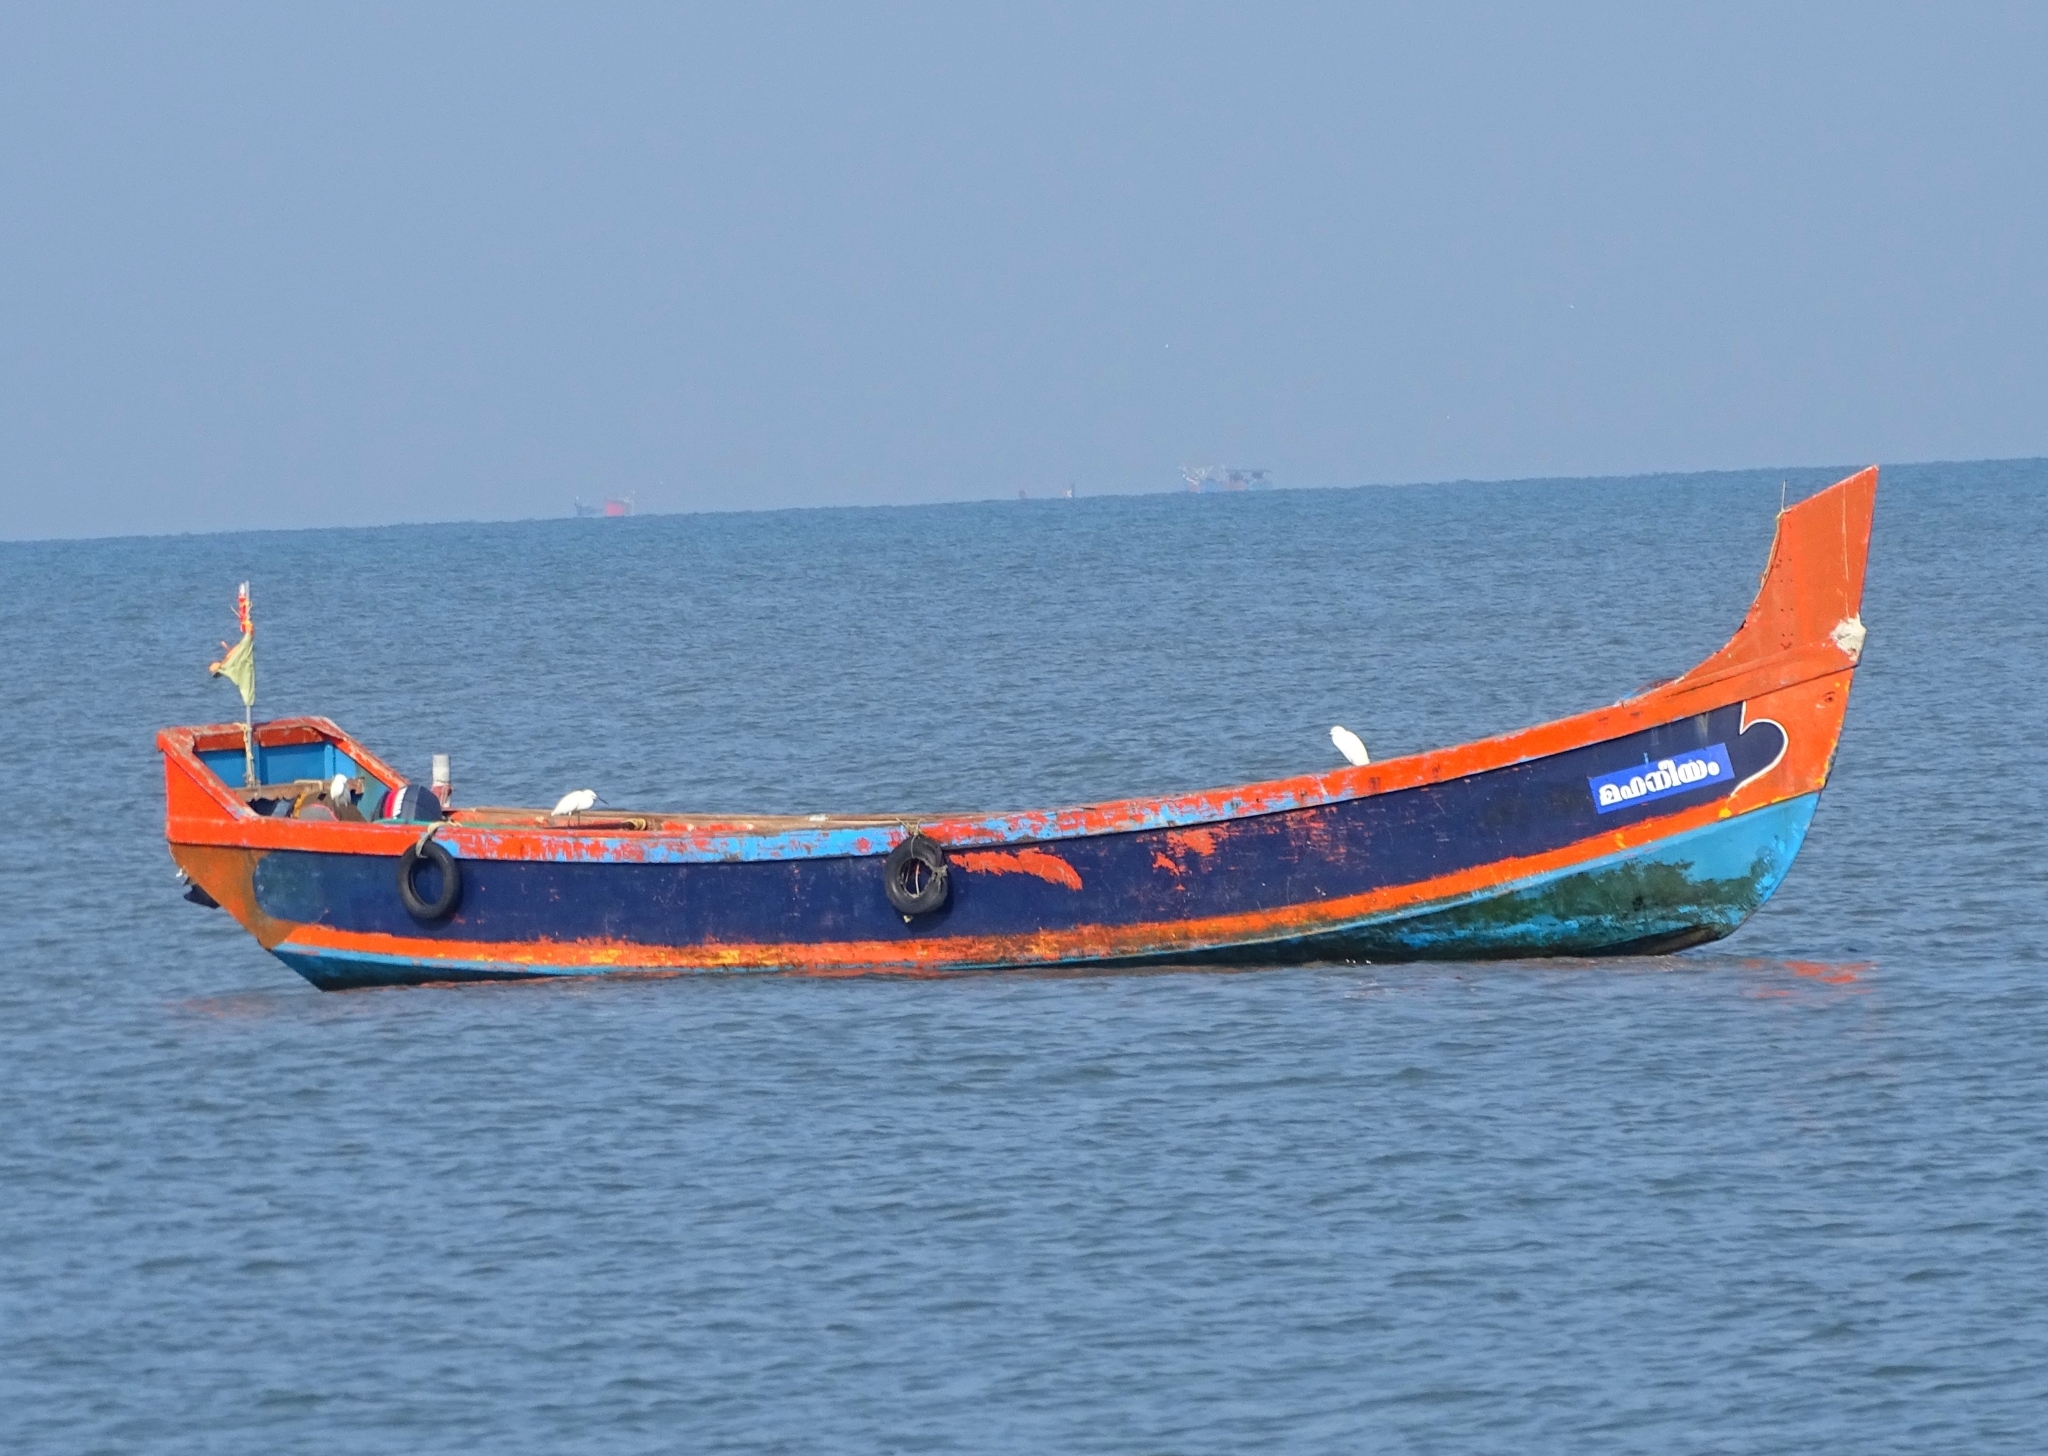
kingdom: Animalia
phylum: Chordata
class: Aves
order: Pelecaniformes
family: Ardeidae
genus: Egretta
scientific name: Egretta garzetta
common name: Little egret
